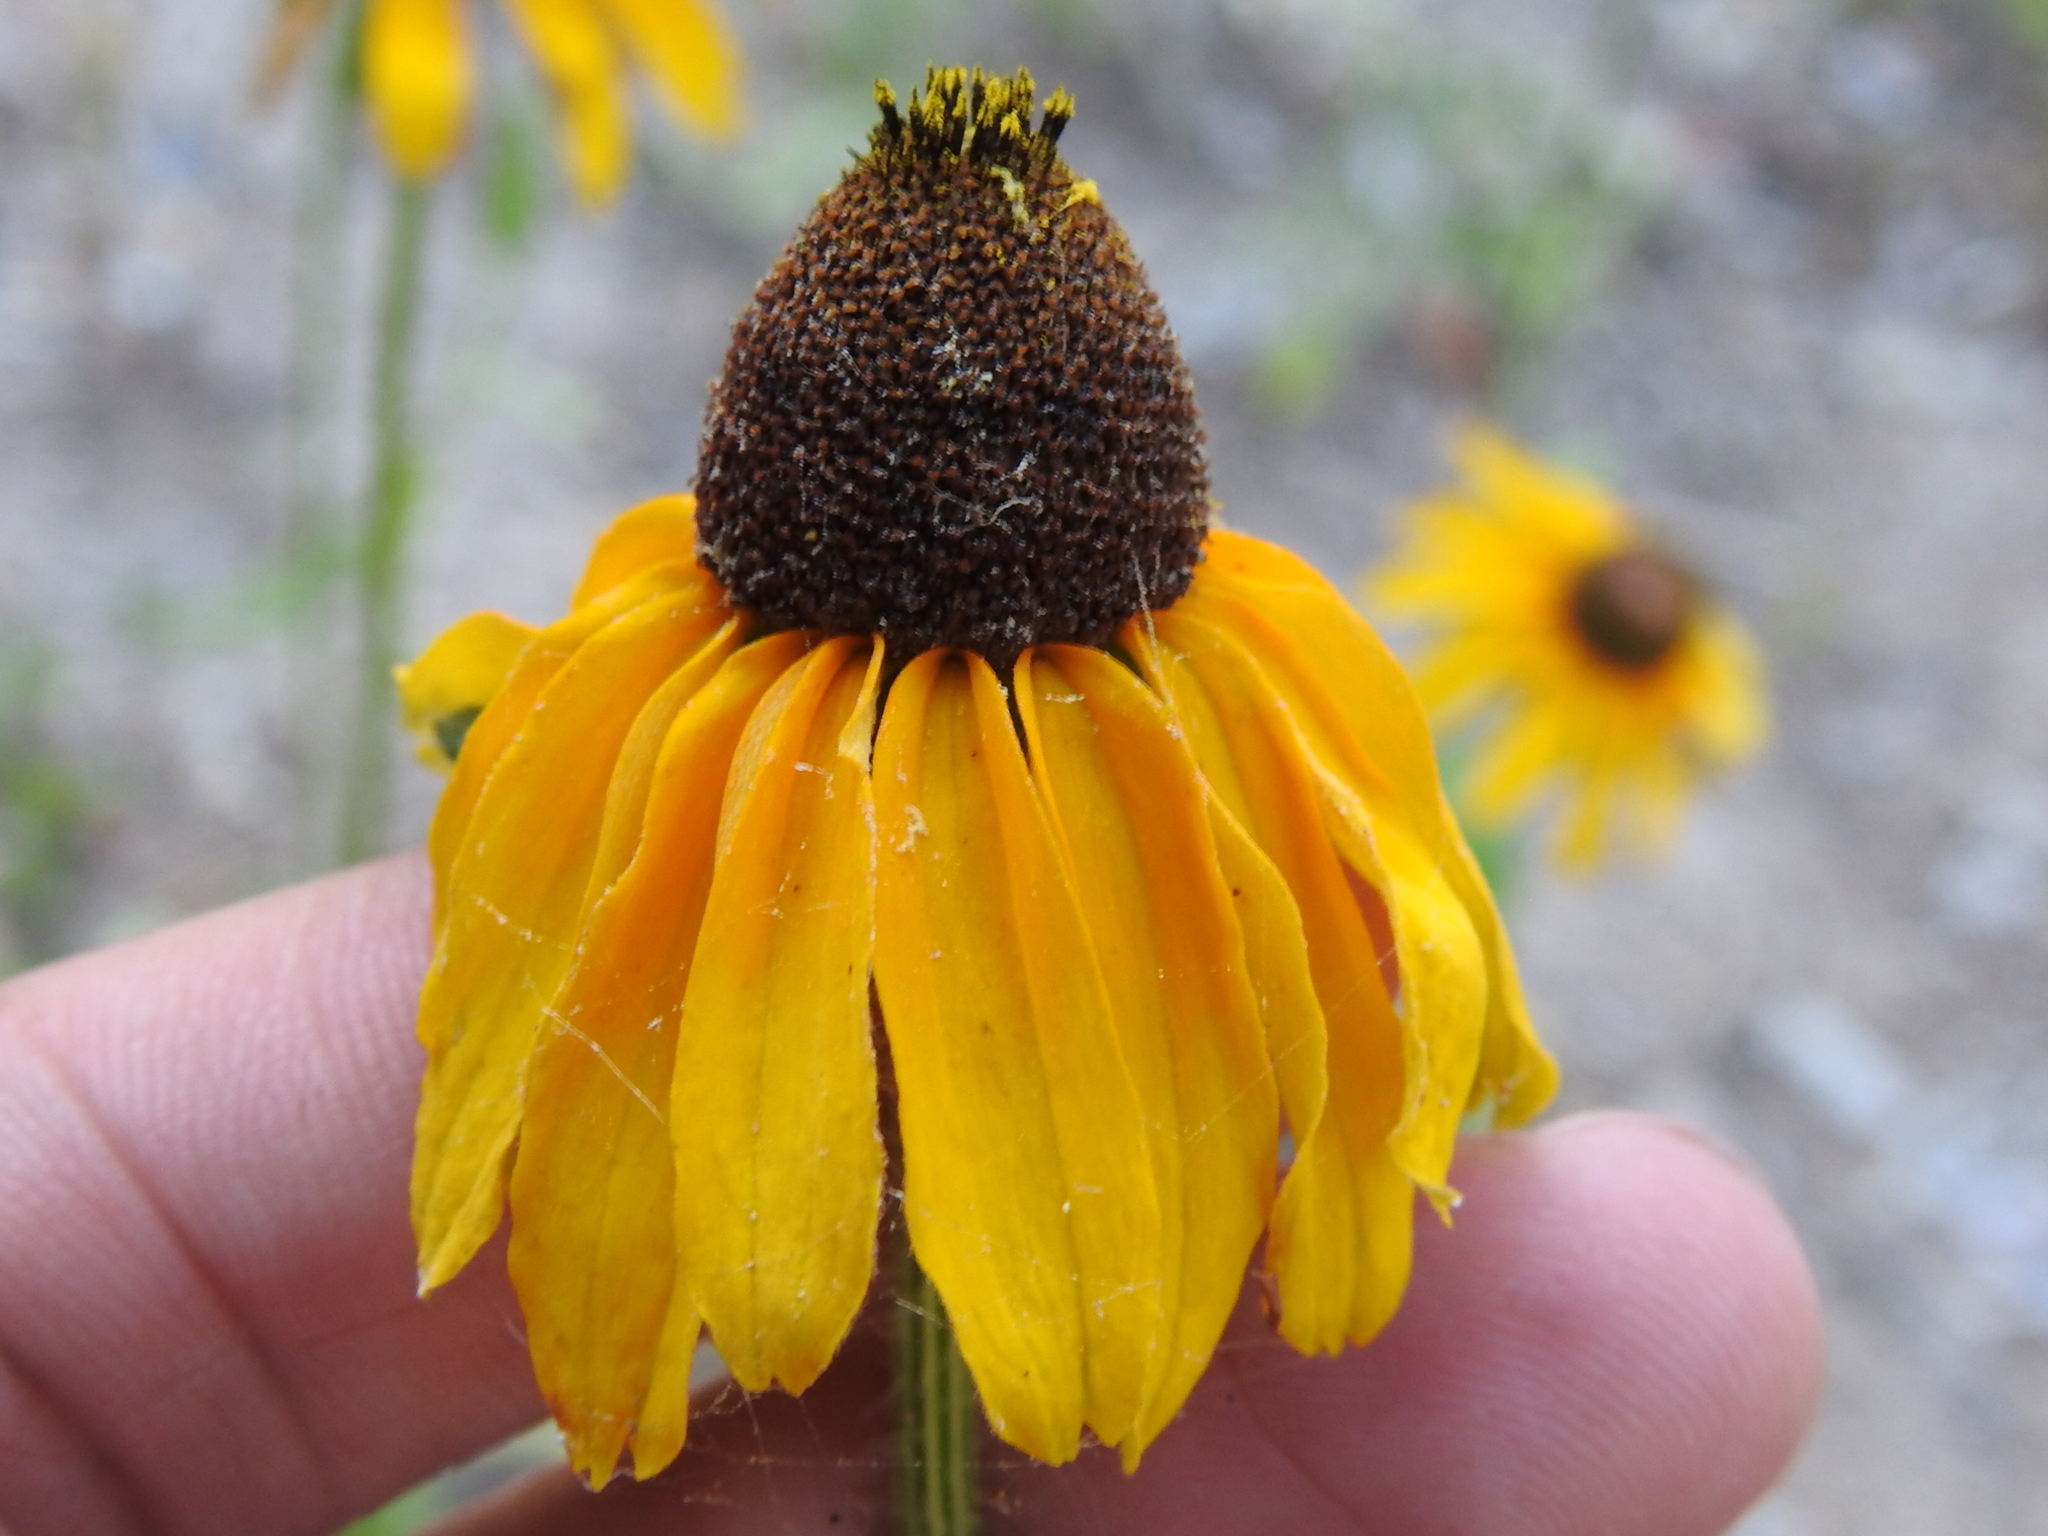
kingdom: Plantae
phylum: Tracheophyta
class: Magnoliopsida
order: Asterales
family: Asteraceae
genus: Rudbeckia
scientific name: Rudbeckia hirta
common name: Black-eyed-susan
